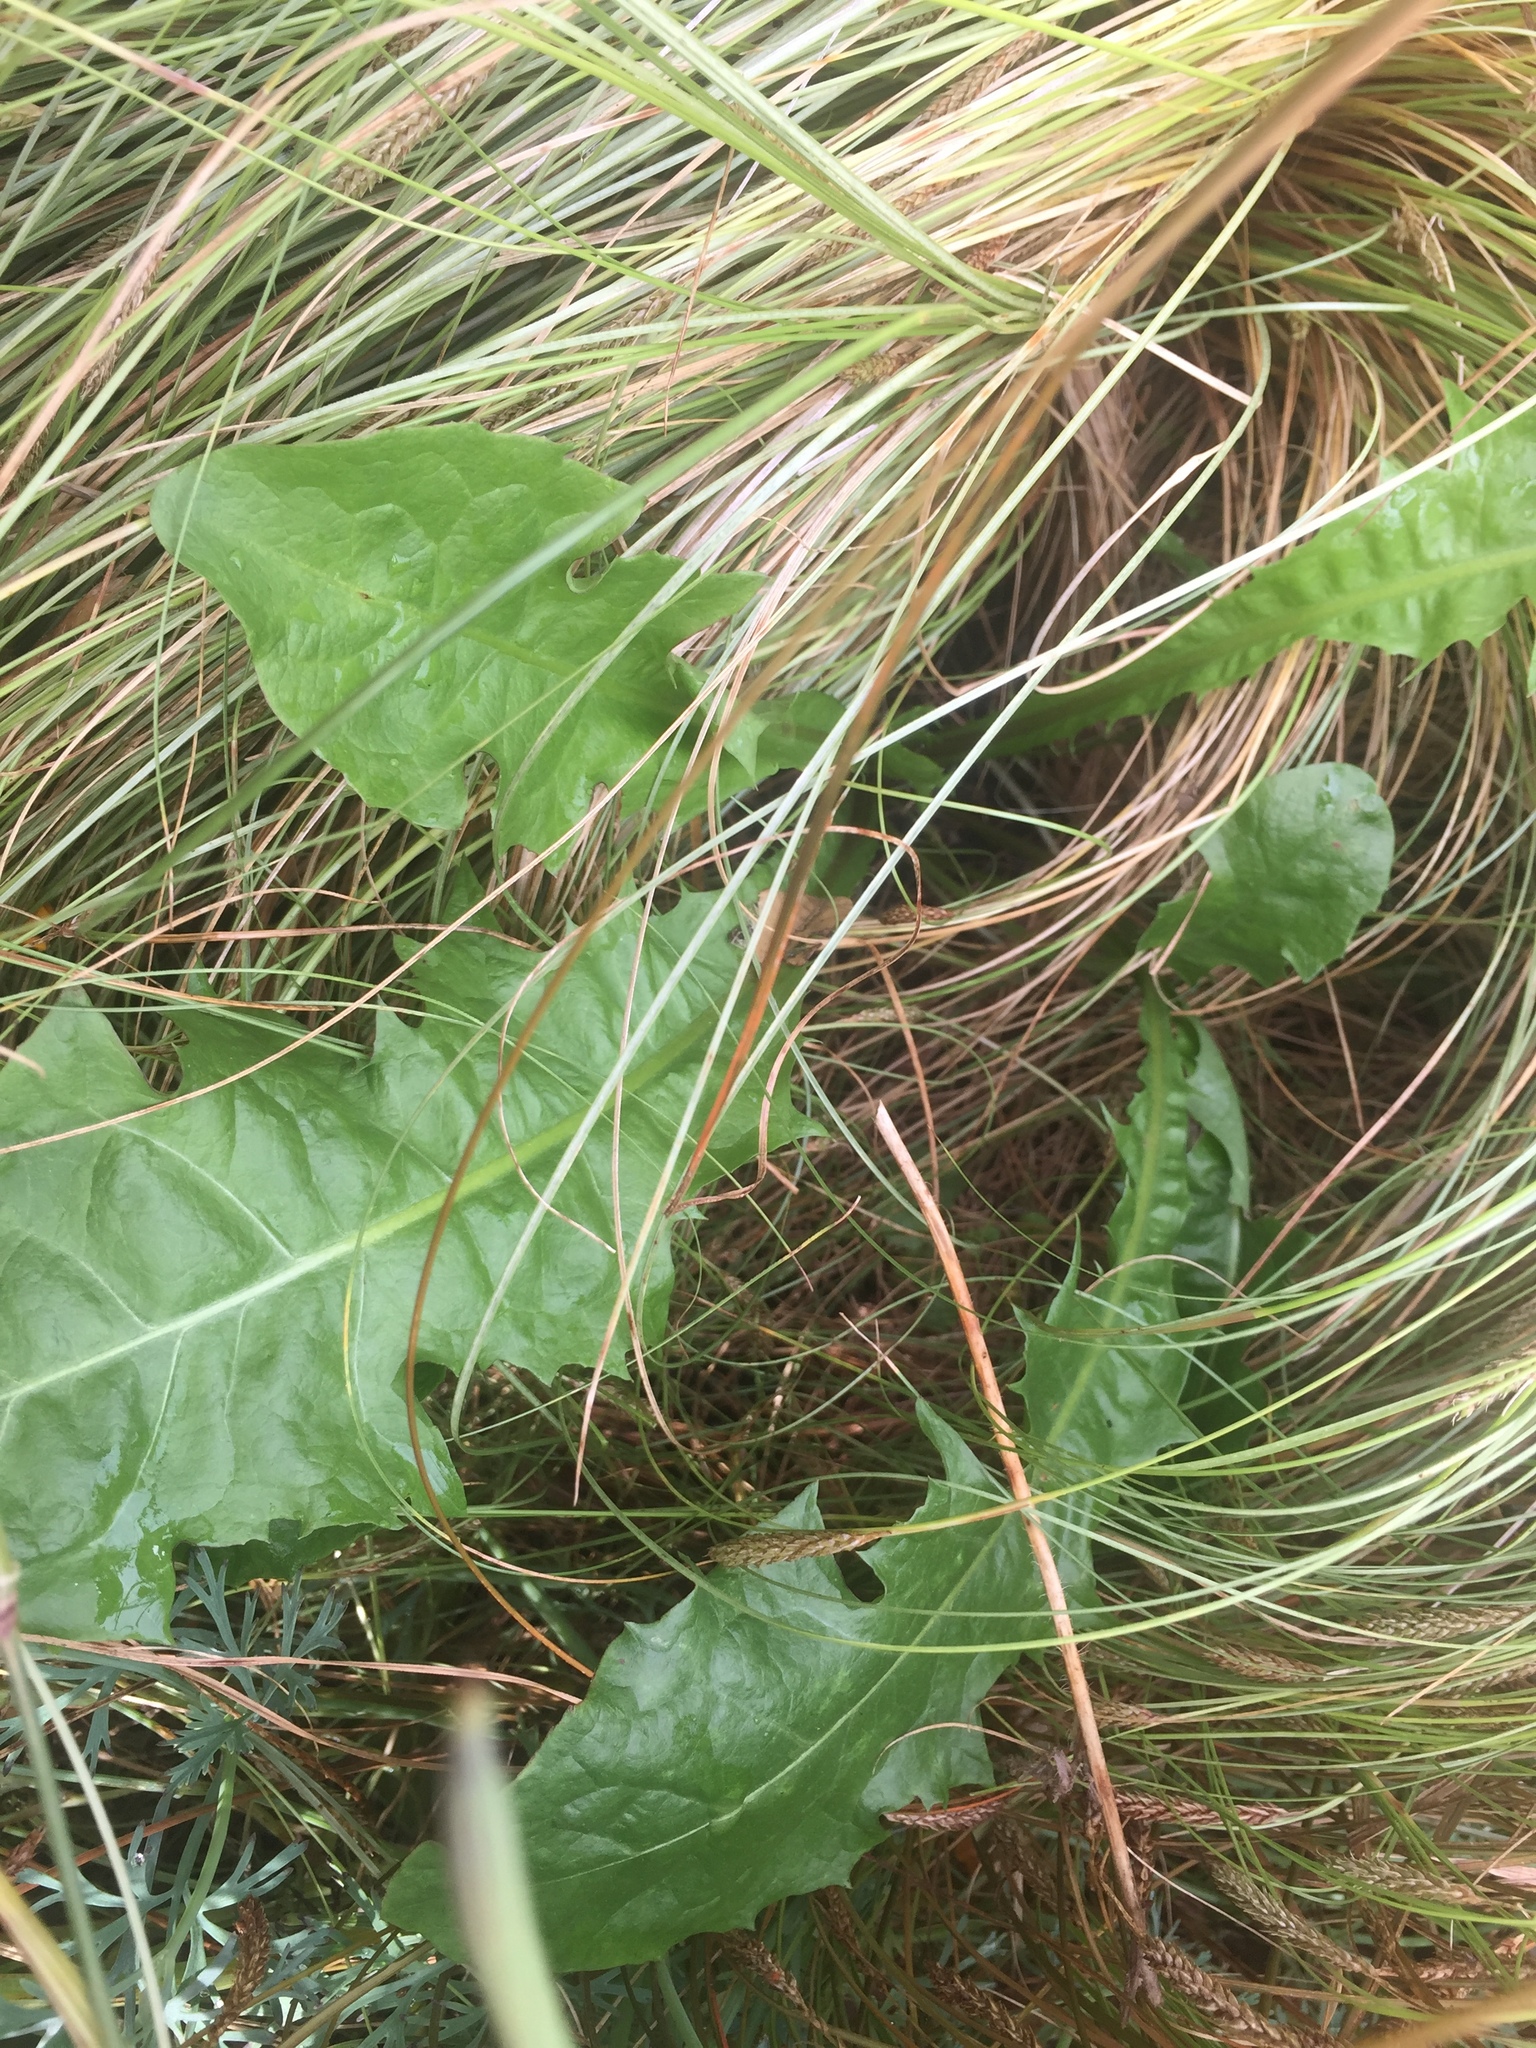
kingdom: Plantae
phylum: Tracheophyta
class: Magnoliopsida
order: Asterales
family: Asteraceae
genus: Taraxacum
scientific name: Taraxacum officinale
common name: Common dandelion
